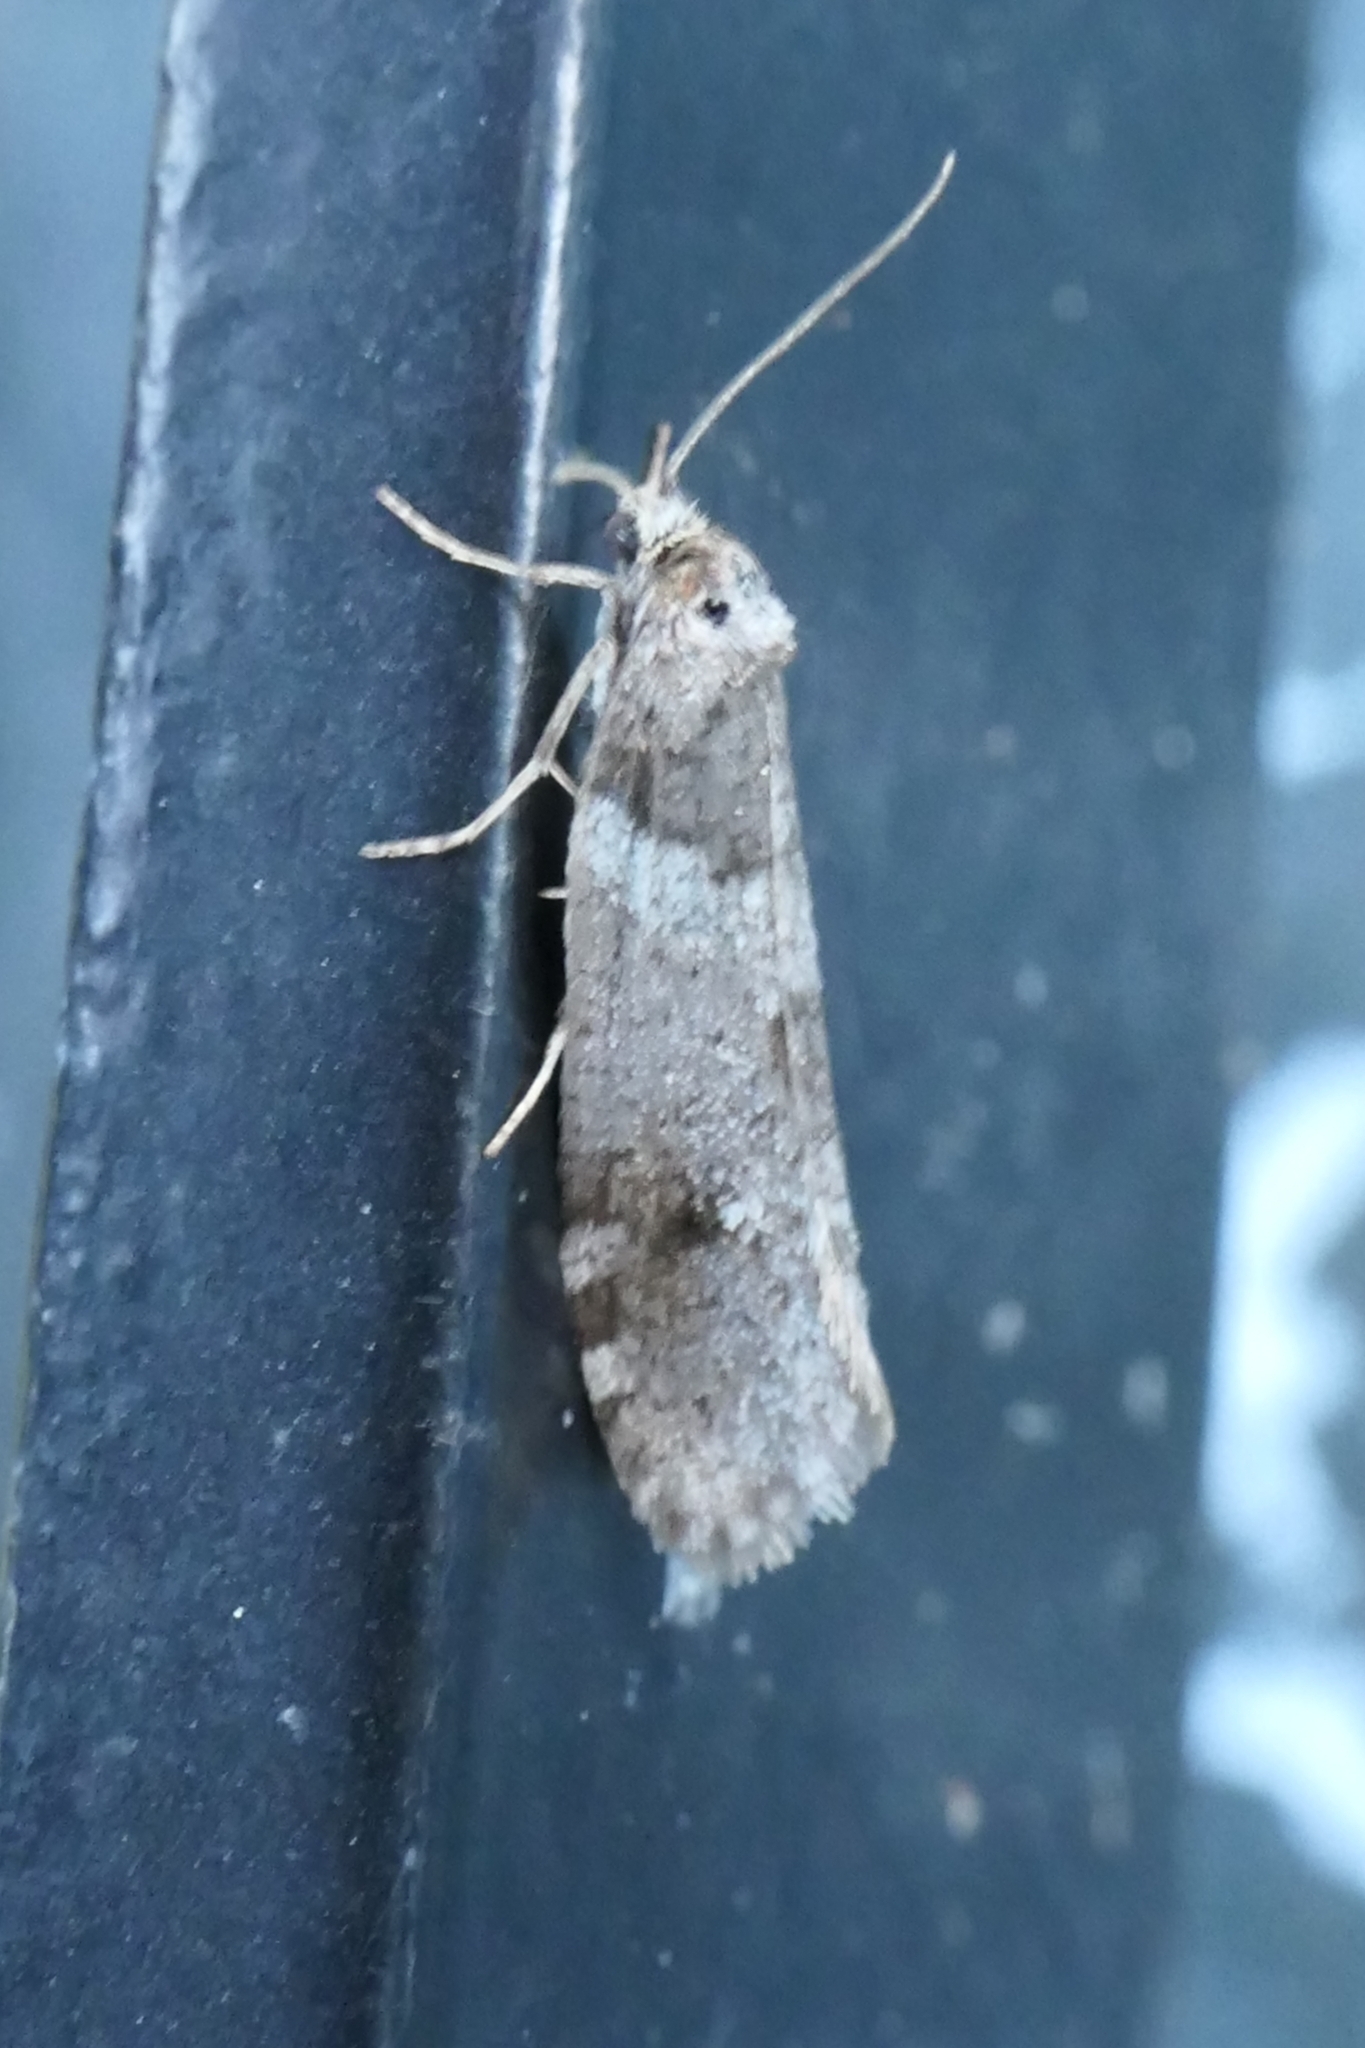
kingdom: Animalia
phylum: Arthropoda
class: Insecta
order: Lepidoptera
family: Psychidae
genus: Lepidoscia
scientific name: Lepidoscia heliochares
